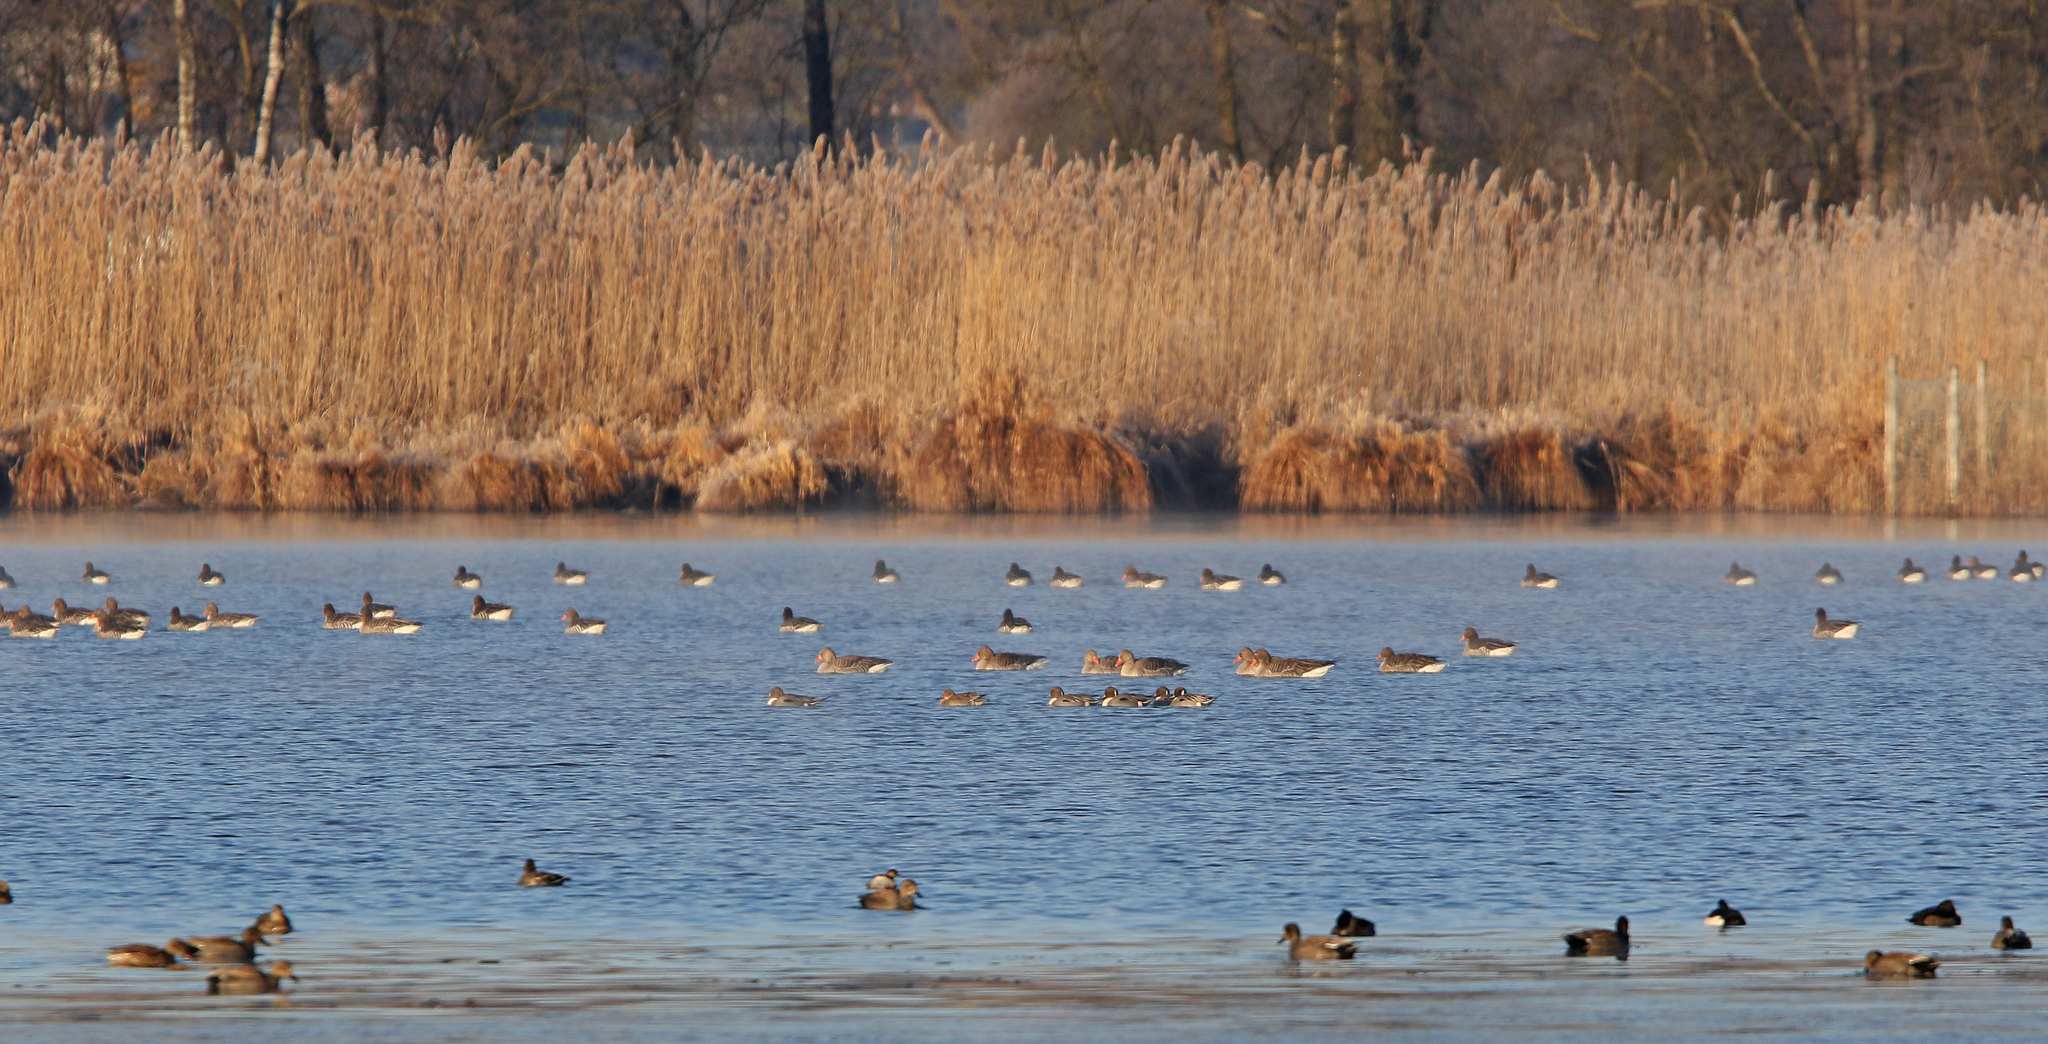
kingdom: Animalia
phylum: Chordata
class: Aves
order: Anseriformes
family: Anatidae
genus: Anas
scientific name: Anas acuta
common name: Northern pintail
